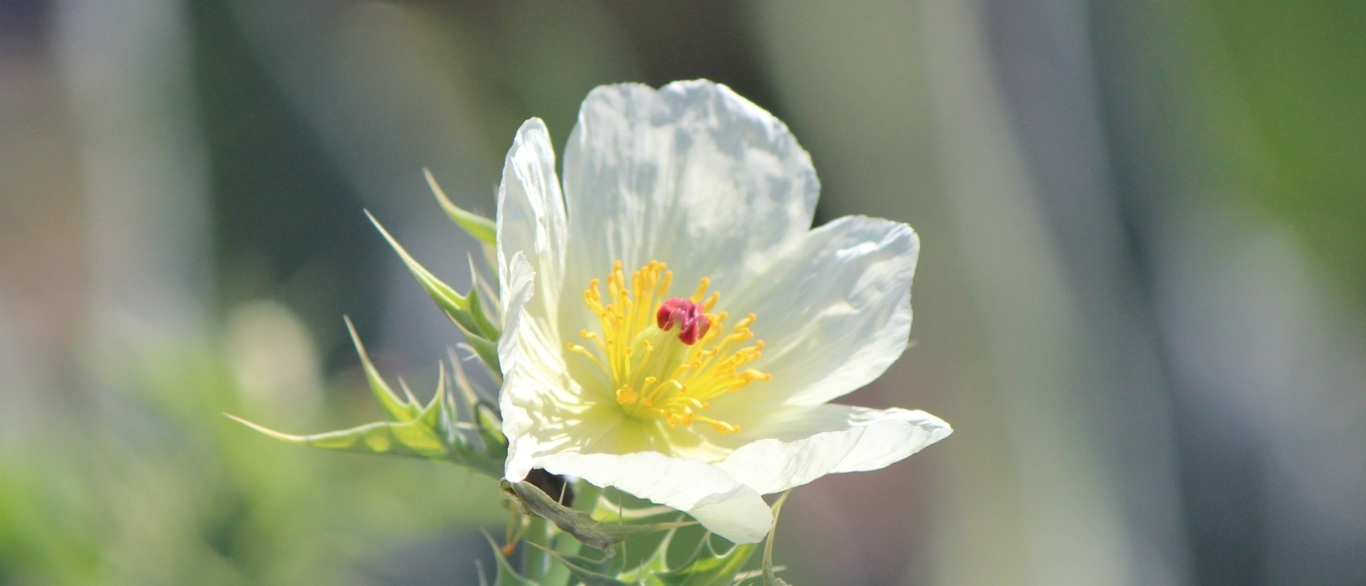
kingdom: Plantae
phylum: Tracheophyta
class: Magnoliopsida
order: Ranunculales
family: Papaveraceae
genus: Argemone
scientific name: Argemone ochroleuca
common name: White-flower mexican-poppy
